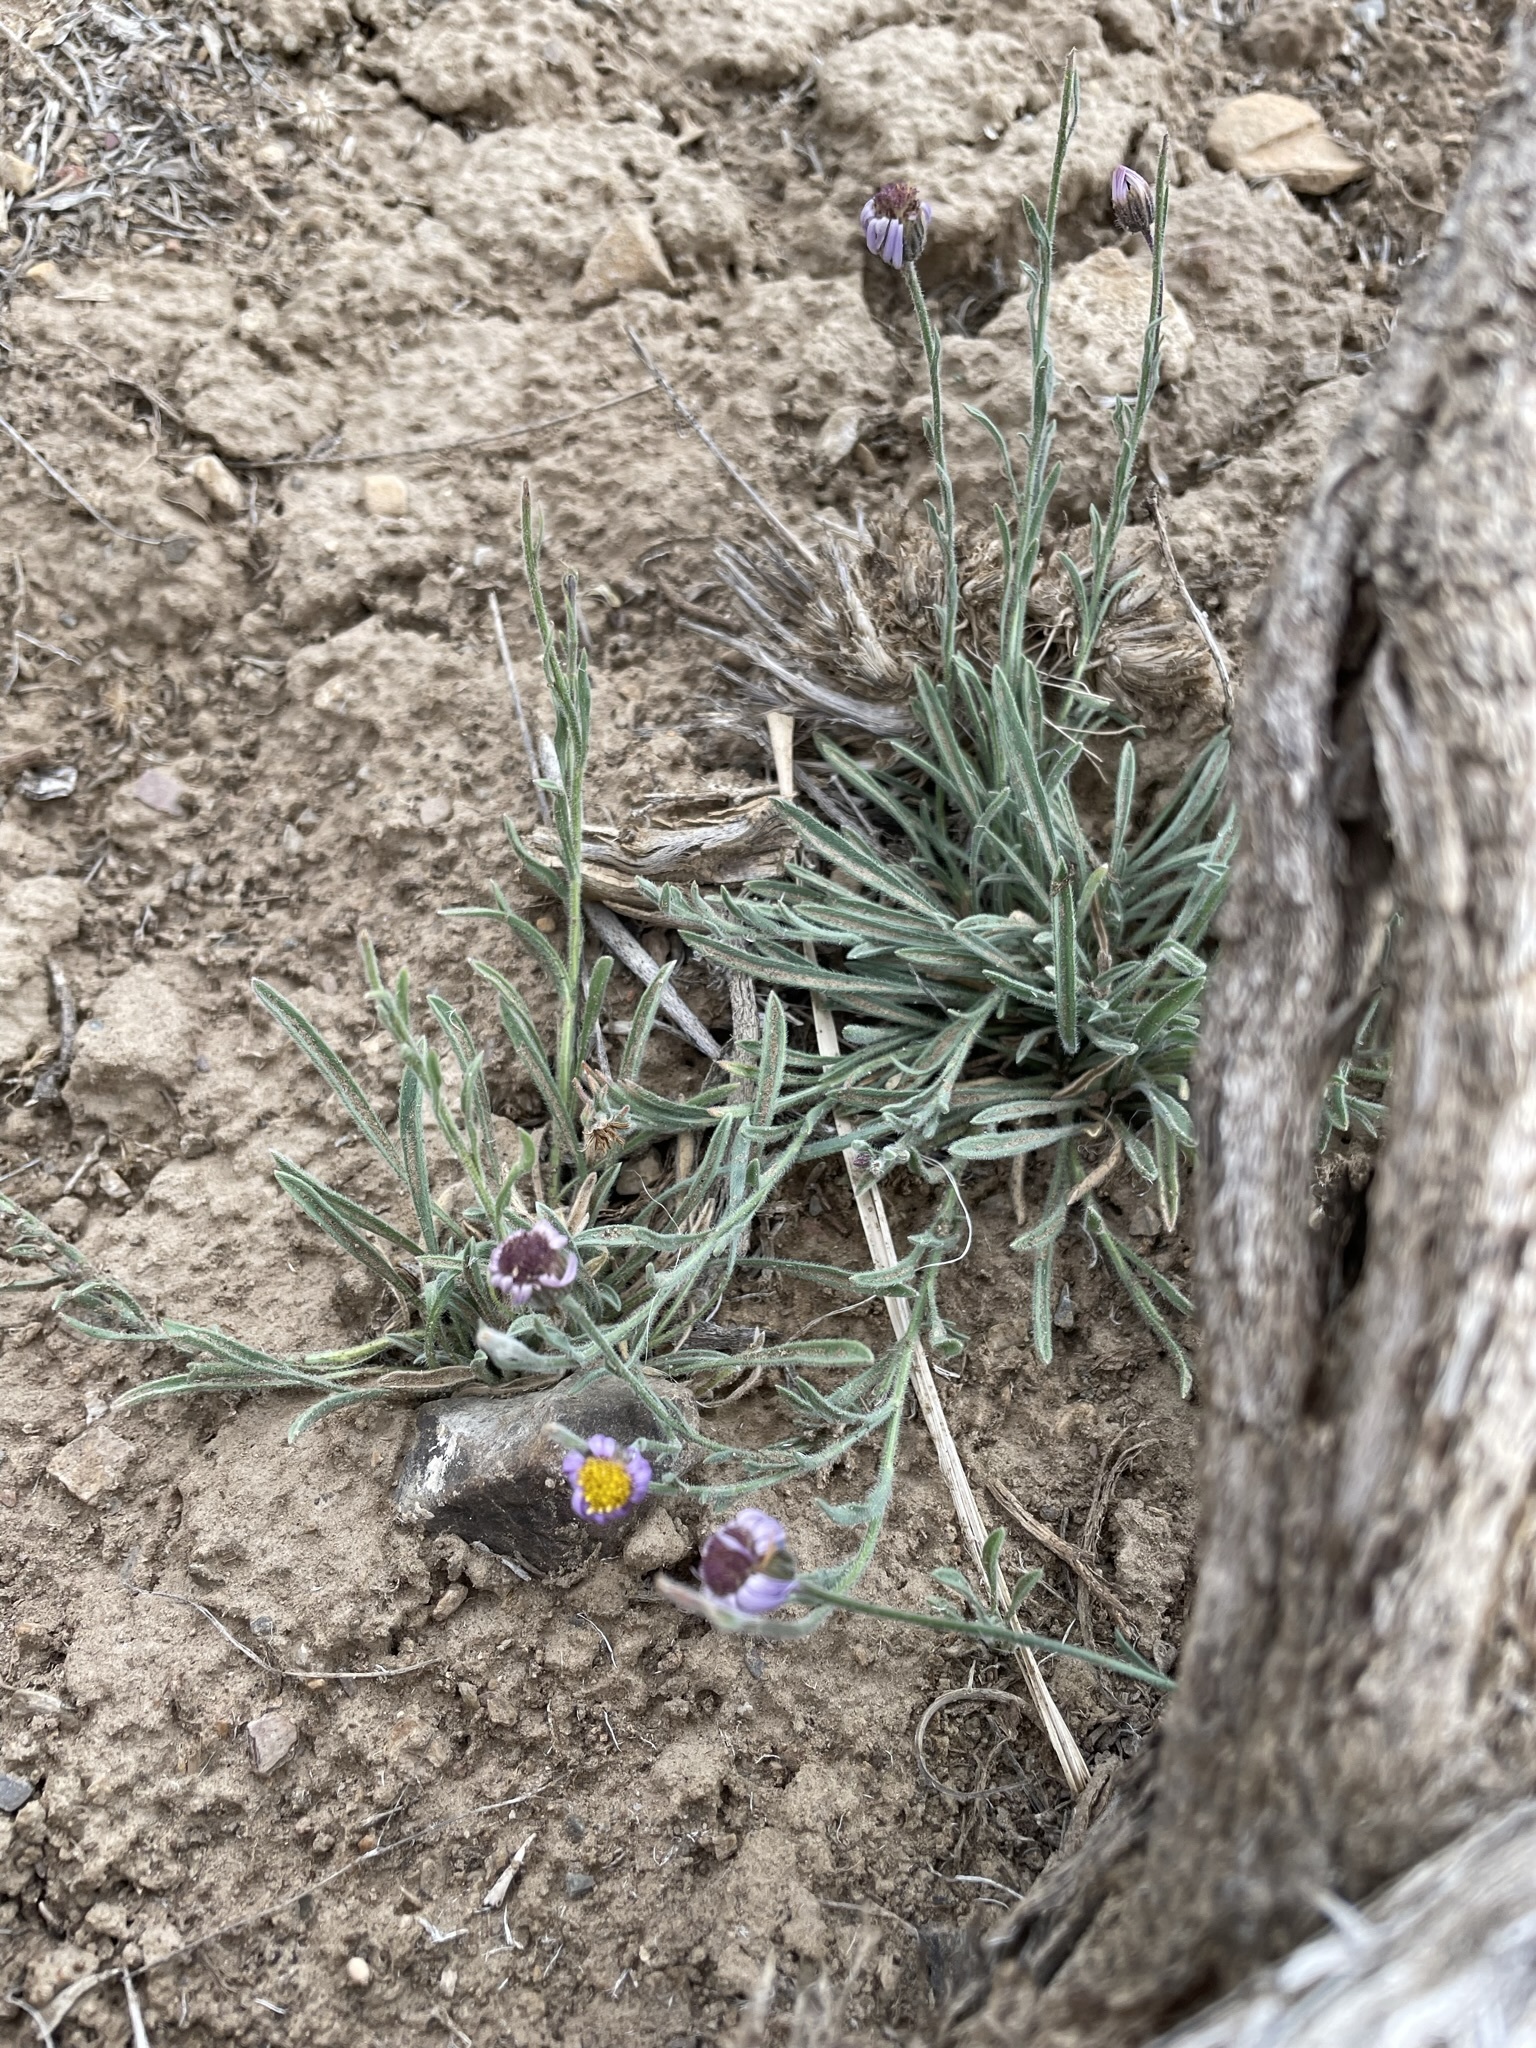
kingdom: Plantae
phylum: Tracheophyta
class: Magnoliopsida
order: Asterales
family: Asteraceae
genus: Erigeron
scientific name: Erigeron clokeyi
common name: Clokey's fleabane
